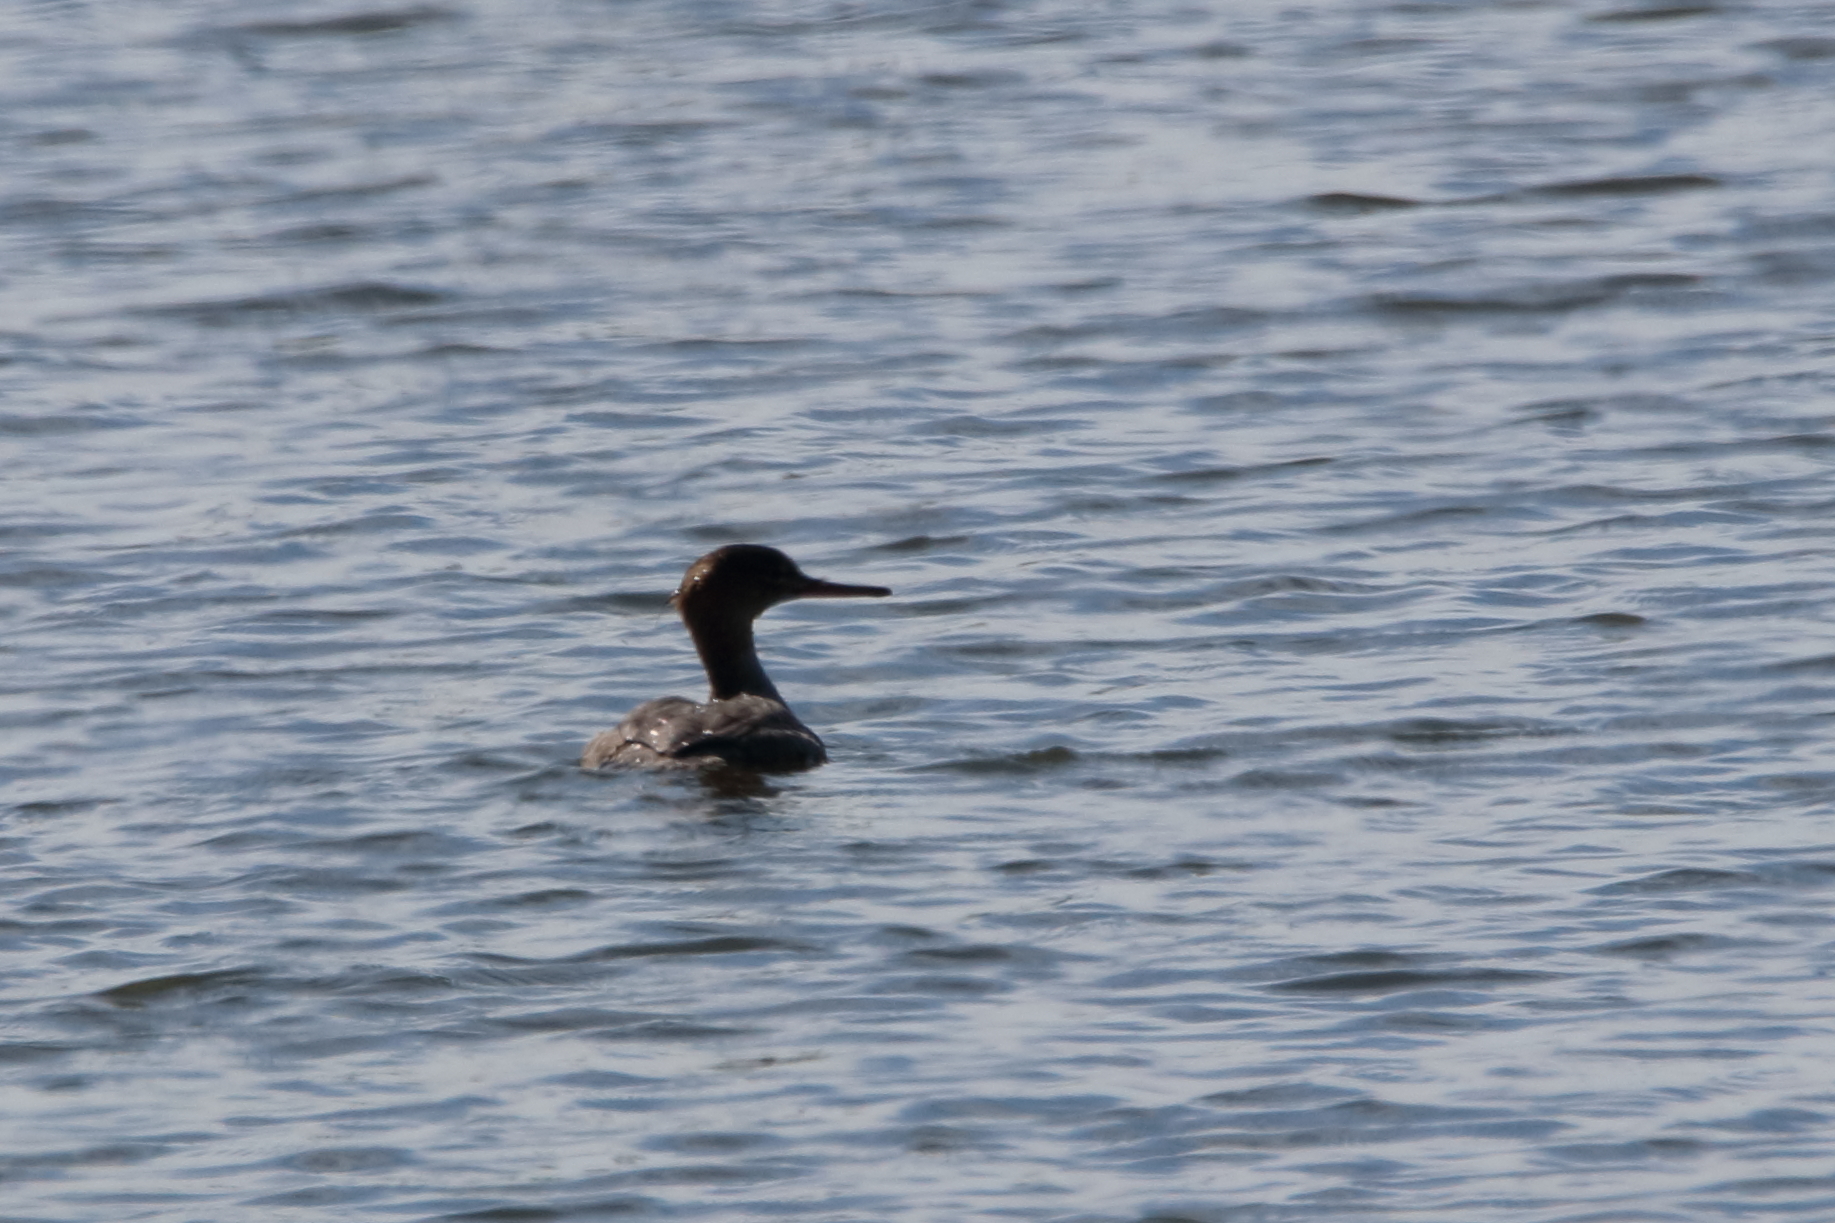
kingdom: Animalia
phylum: Chordata
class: Aves
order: Anseriformes
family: Anatidae
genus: Mergus
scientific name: Mergus serrator
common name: Red-breasted merganser
